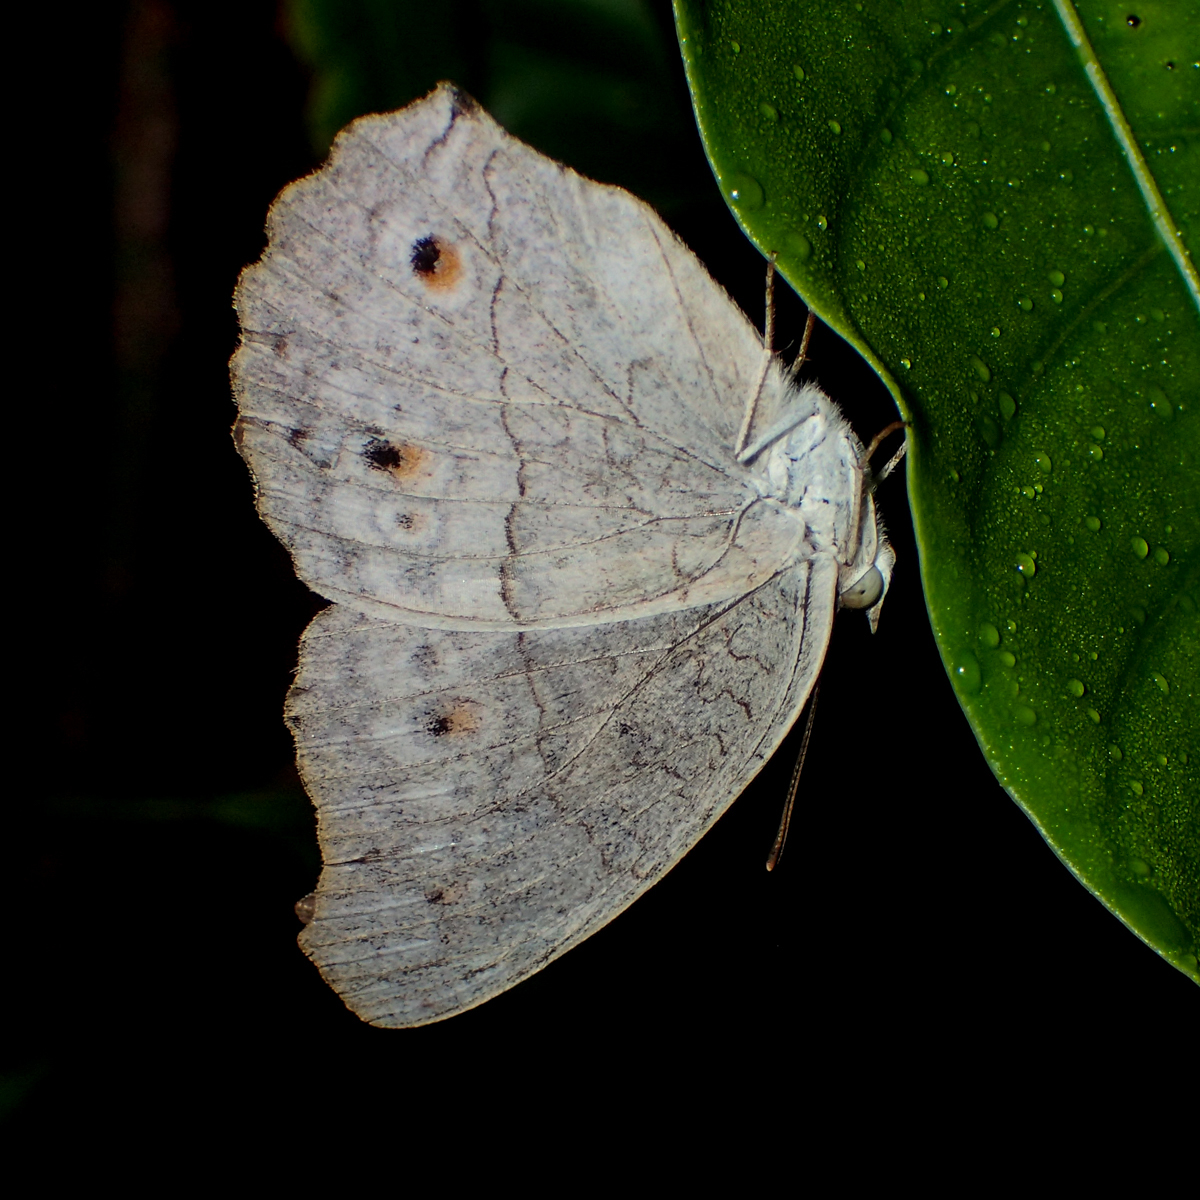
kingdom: Animalia
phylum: Arthropoda
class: Insecta
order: Lepidoptera
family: Nymphalidae
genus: Junonia
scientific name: Junonia atlites
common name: Grey pansy
